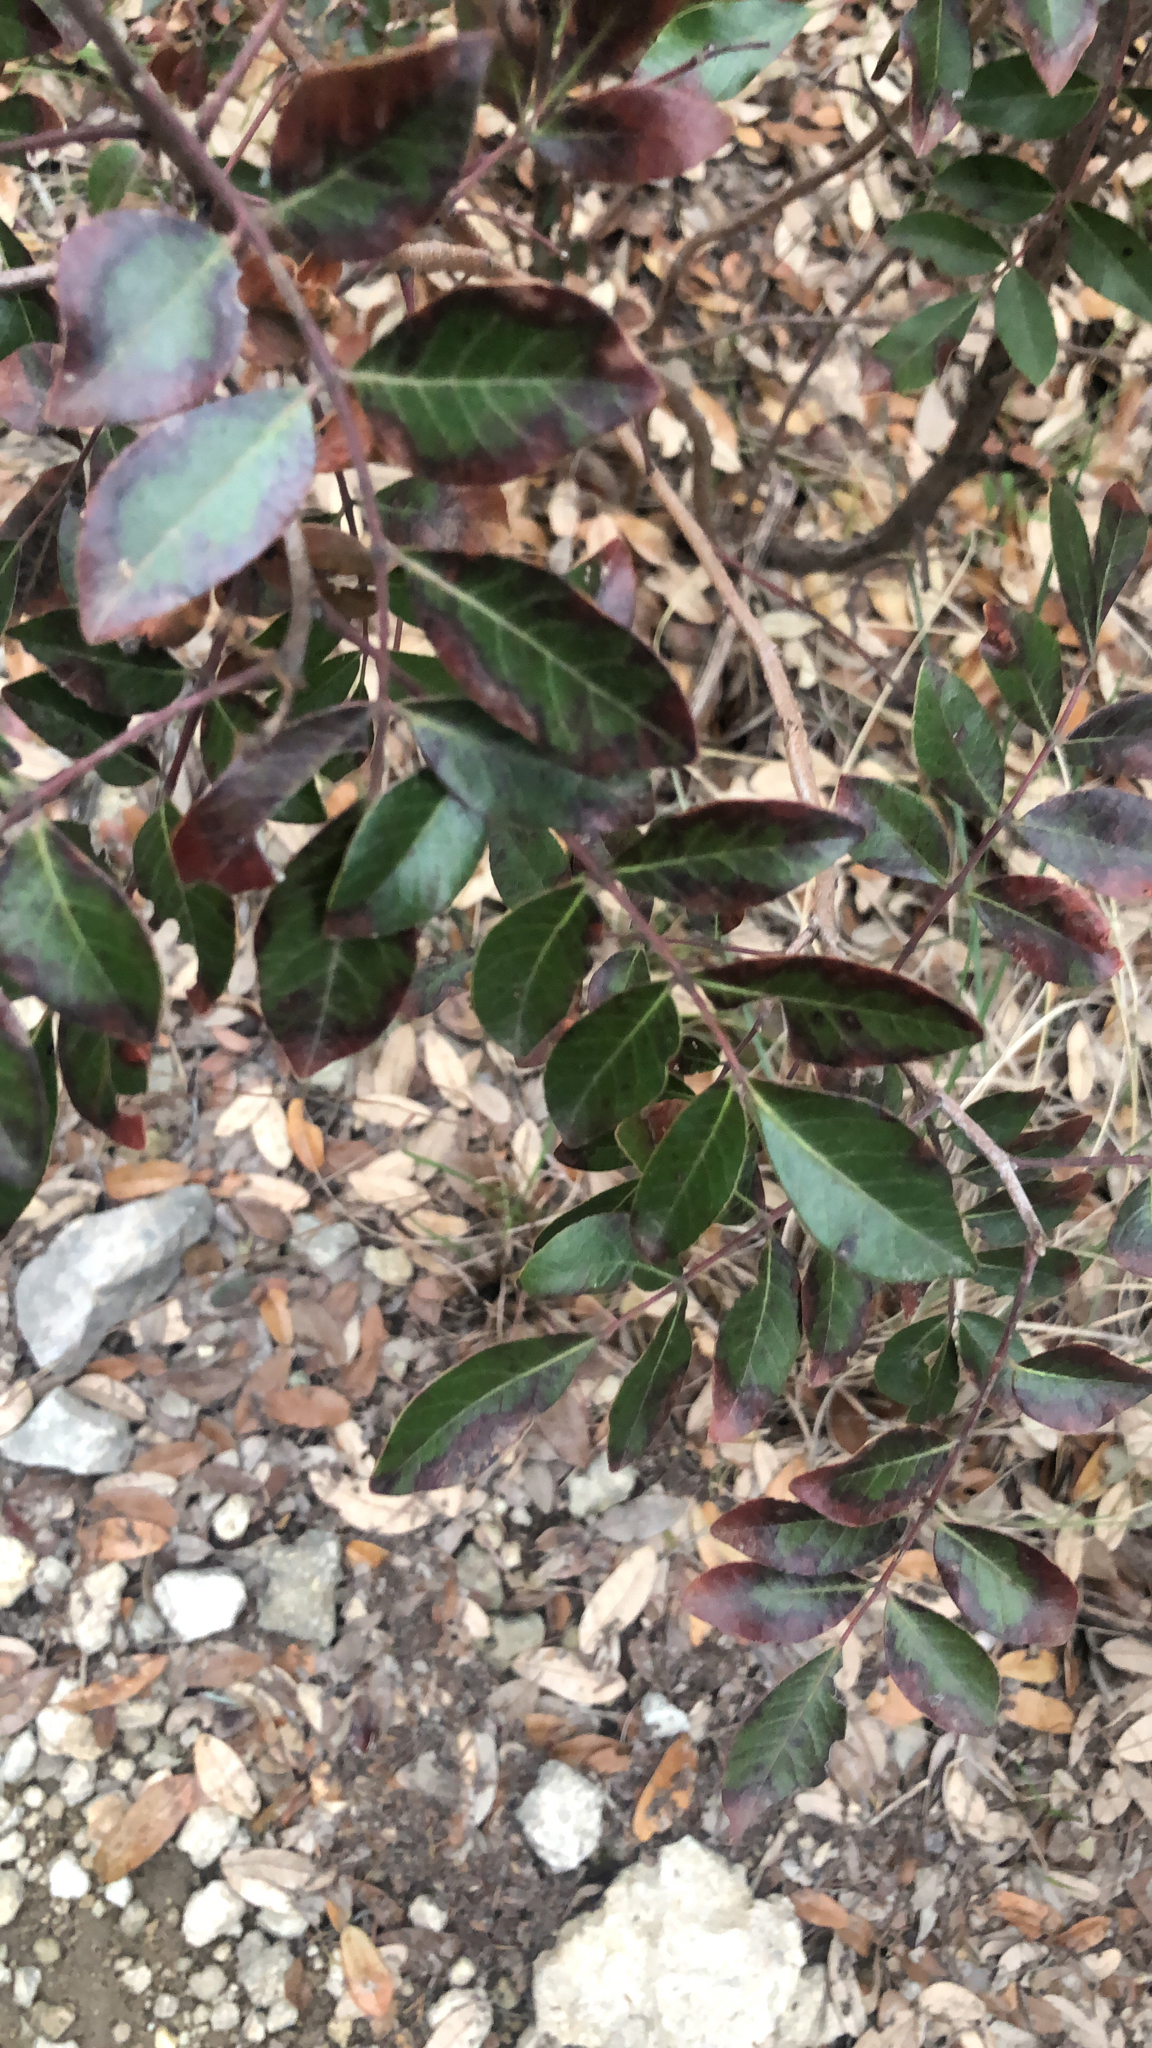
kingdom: Plantae
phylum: Tracheophyta
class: Magnoliopsida
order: Sapindales
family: Anacardiaceae
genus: Rhus
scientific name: Rhus virens
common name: Evergreen sumac
